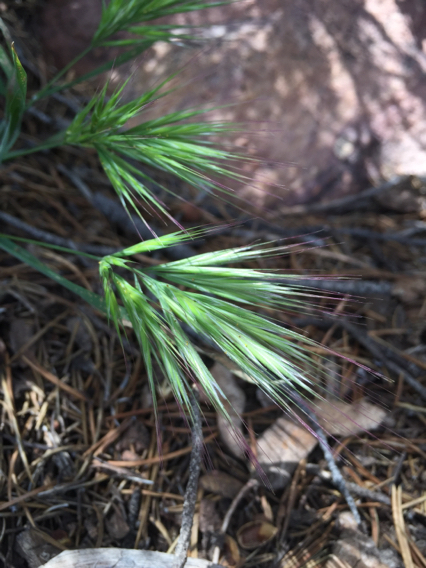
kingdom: Plantae
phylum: Tracheophyta
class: Liliopsida
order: Poales
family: Poaceae
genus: Bromus
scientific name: Bromus rubens
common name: Red brome
